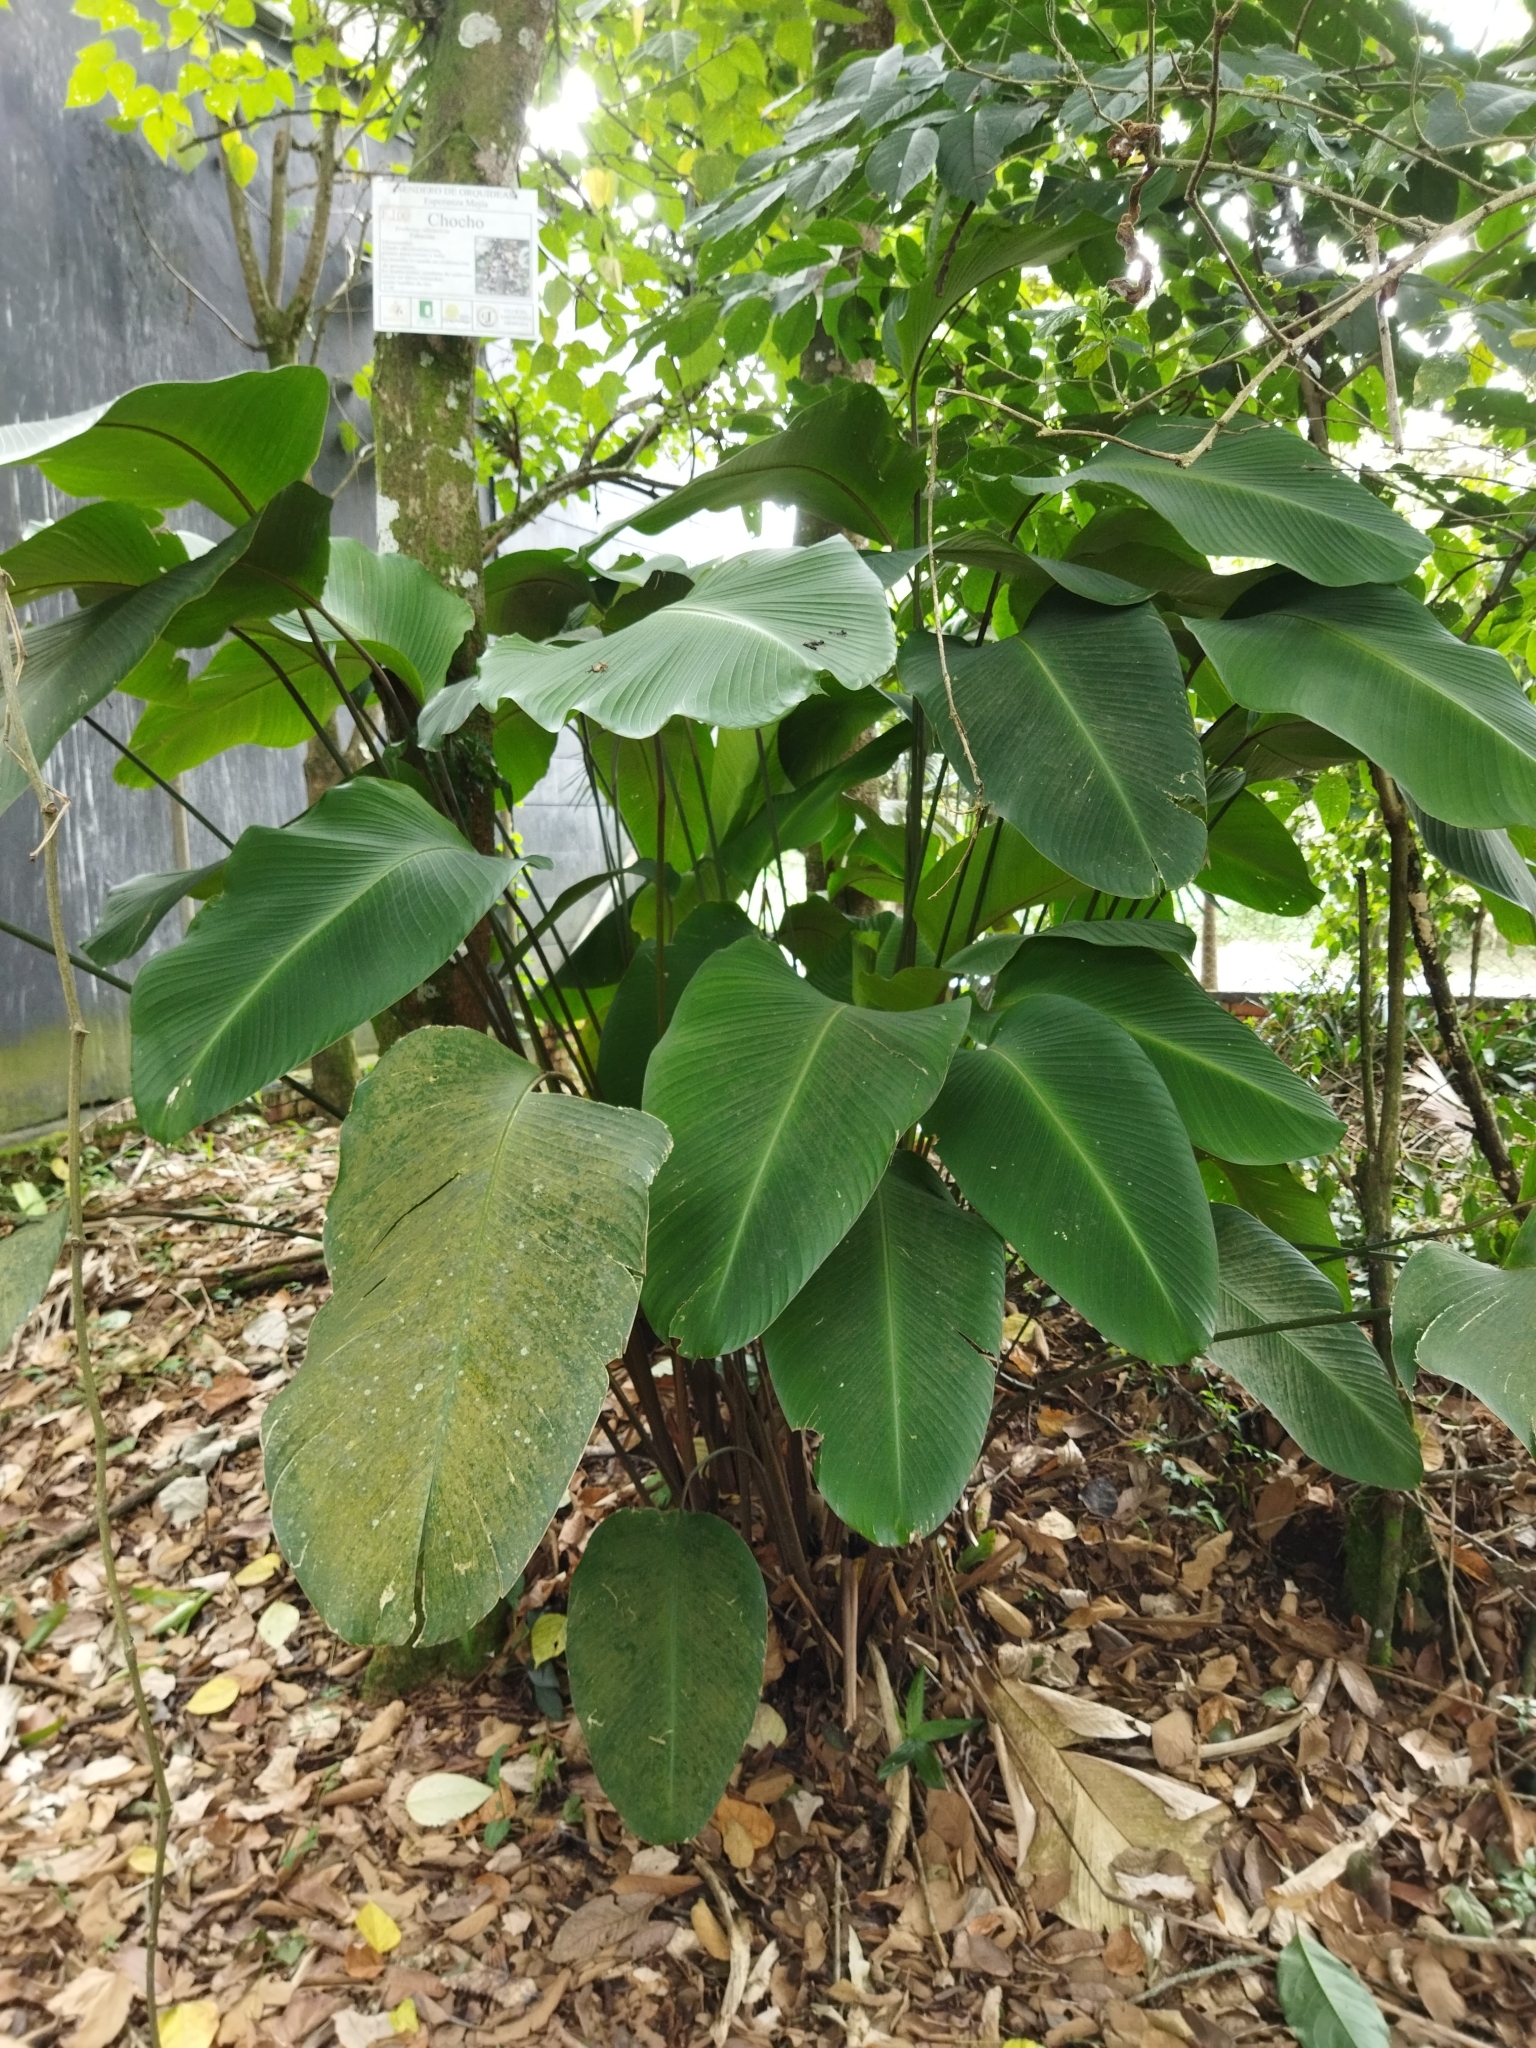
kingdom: Plantae
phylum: Tracheophyta
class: Liliopsida
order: Zingiberales
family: Marantaceae
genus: Calathea
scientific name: Calathea crotalifera
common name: Rattlesnake plant
